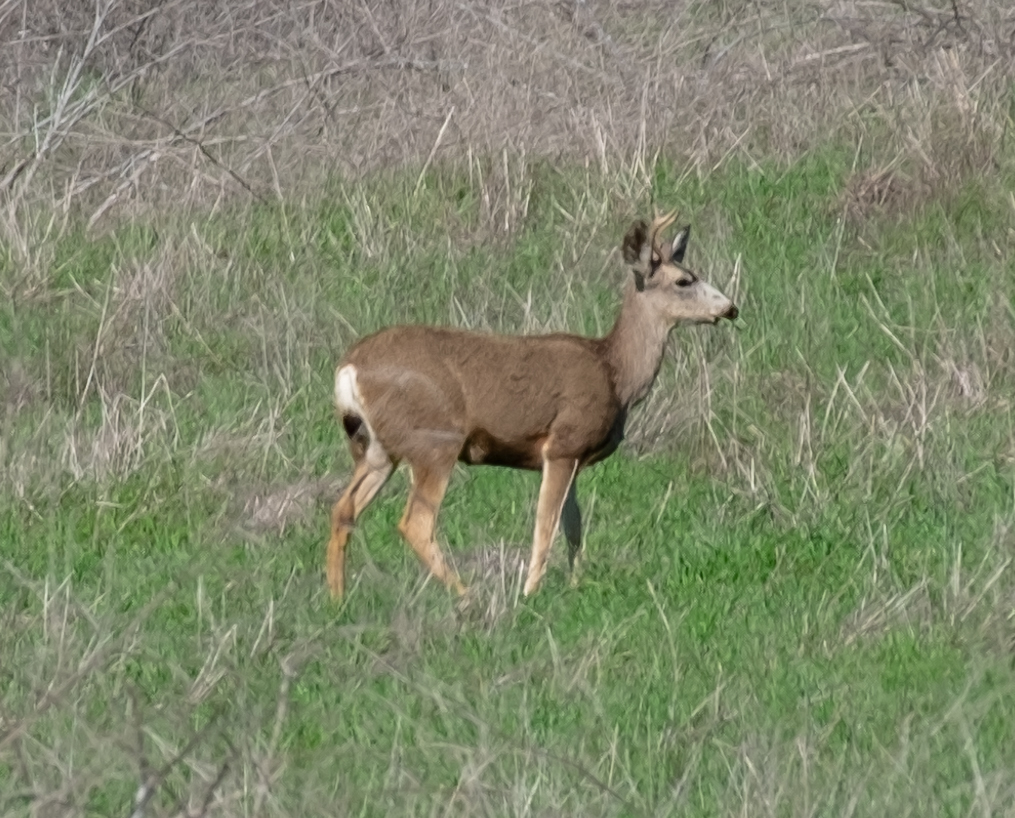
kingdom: Animalia
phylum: Chordata
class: Mammalia
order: Artiodactyla
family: Cervidae
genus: Odocoileus
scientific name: Odocoileus hemionus
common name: Mule deer
